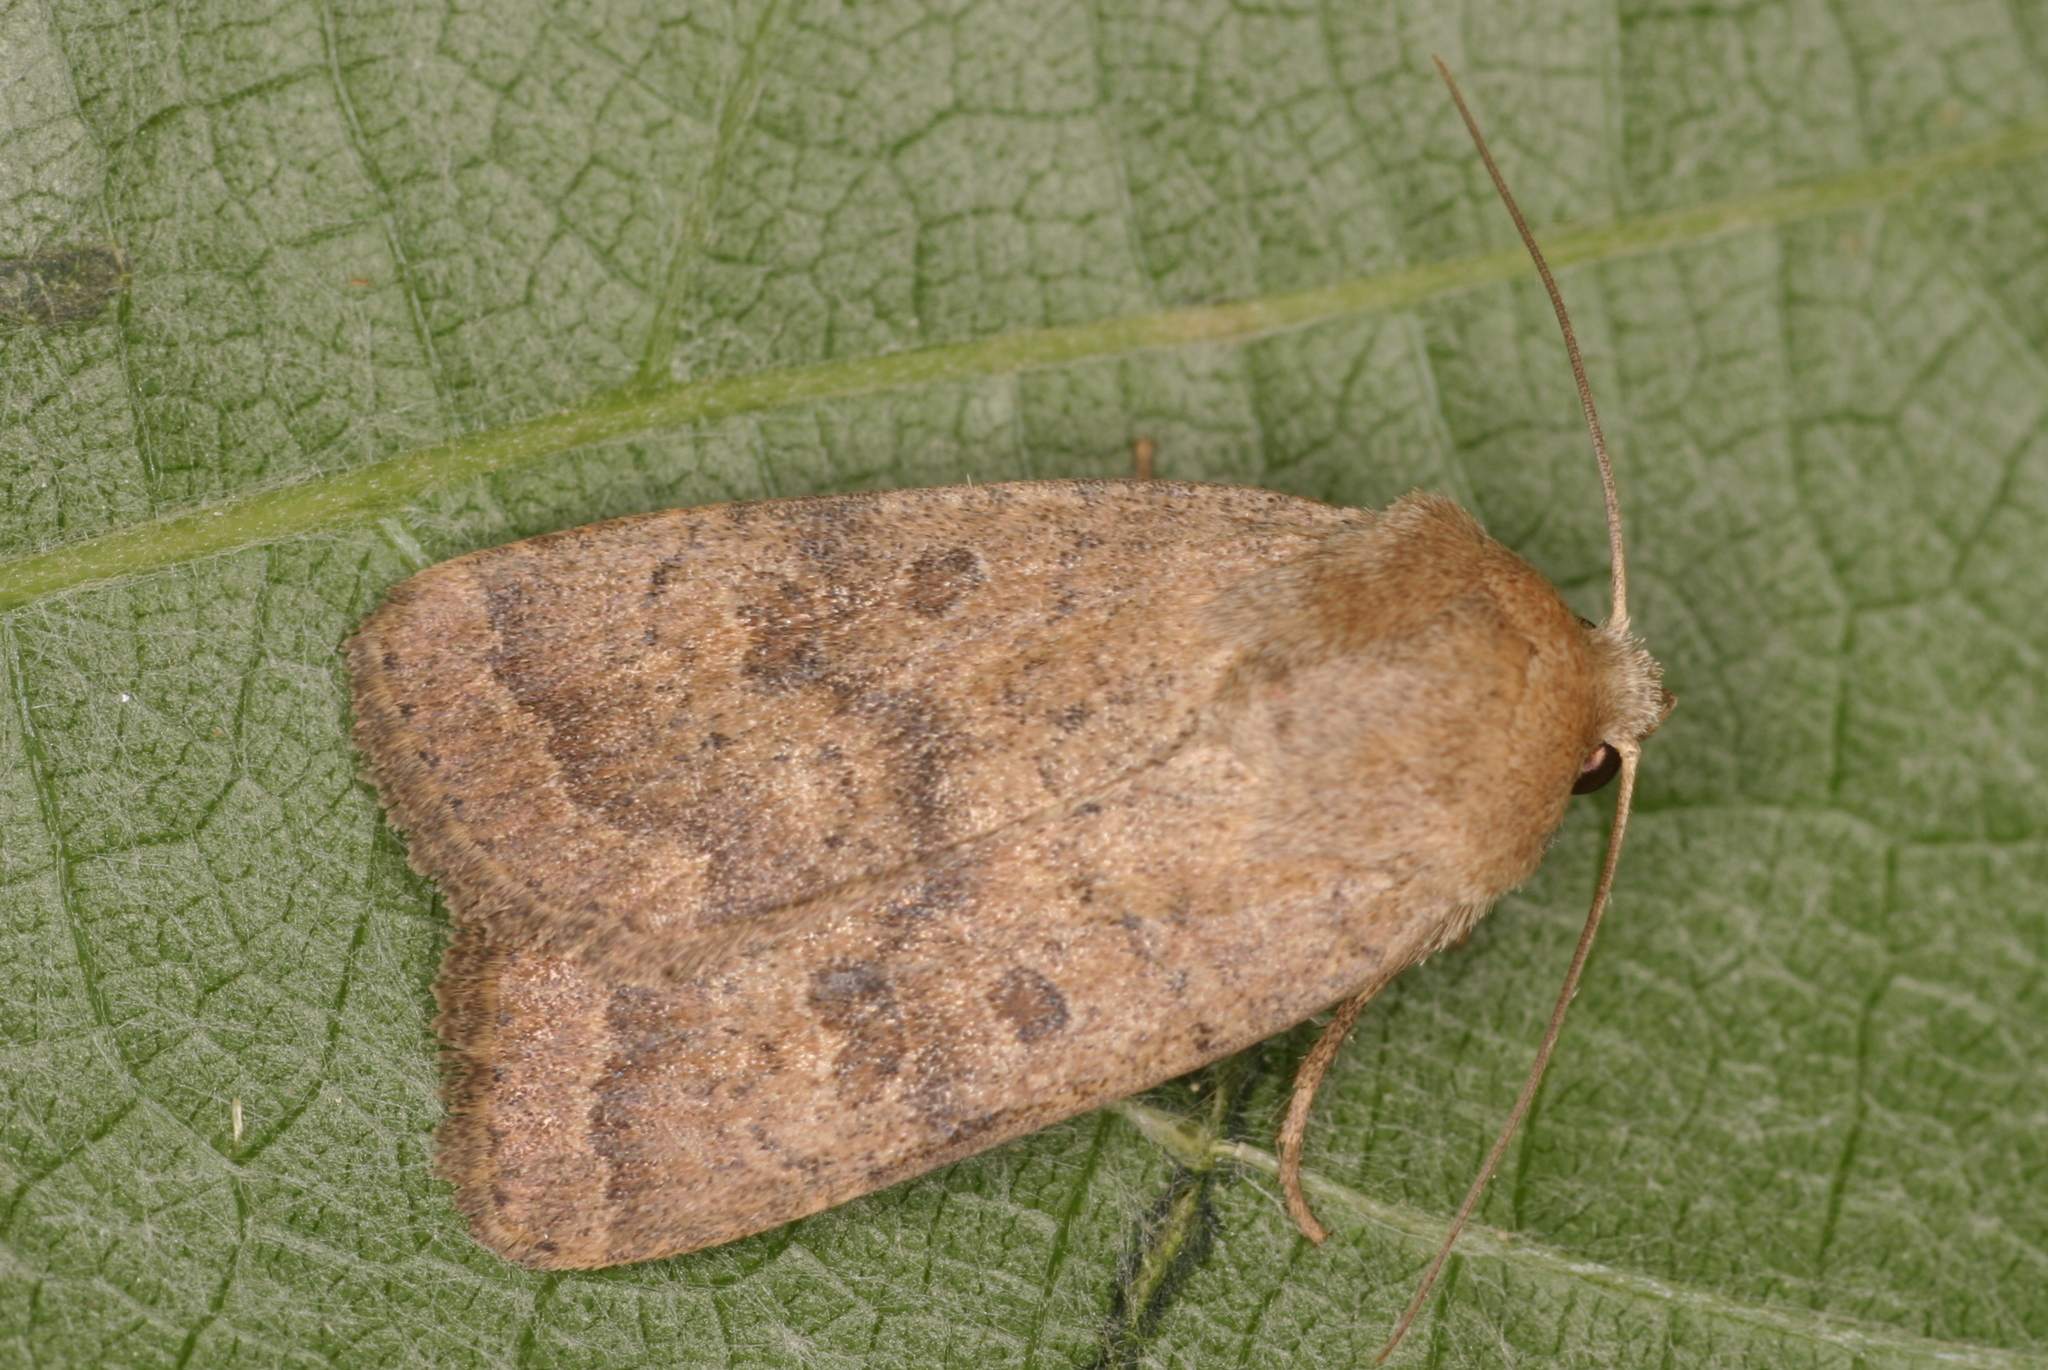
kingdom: Animalia
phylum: Arthropoda
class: Insecta
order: Lepidoptera
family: Noctuidae
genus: Hoplodrina
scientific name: Hoplodrina octogenaria
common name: Uncertain
